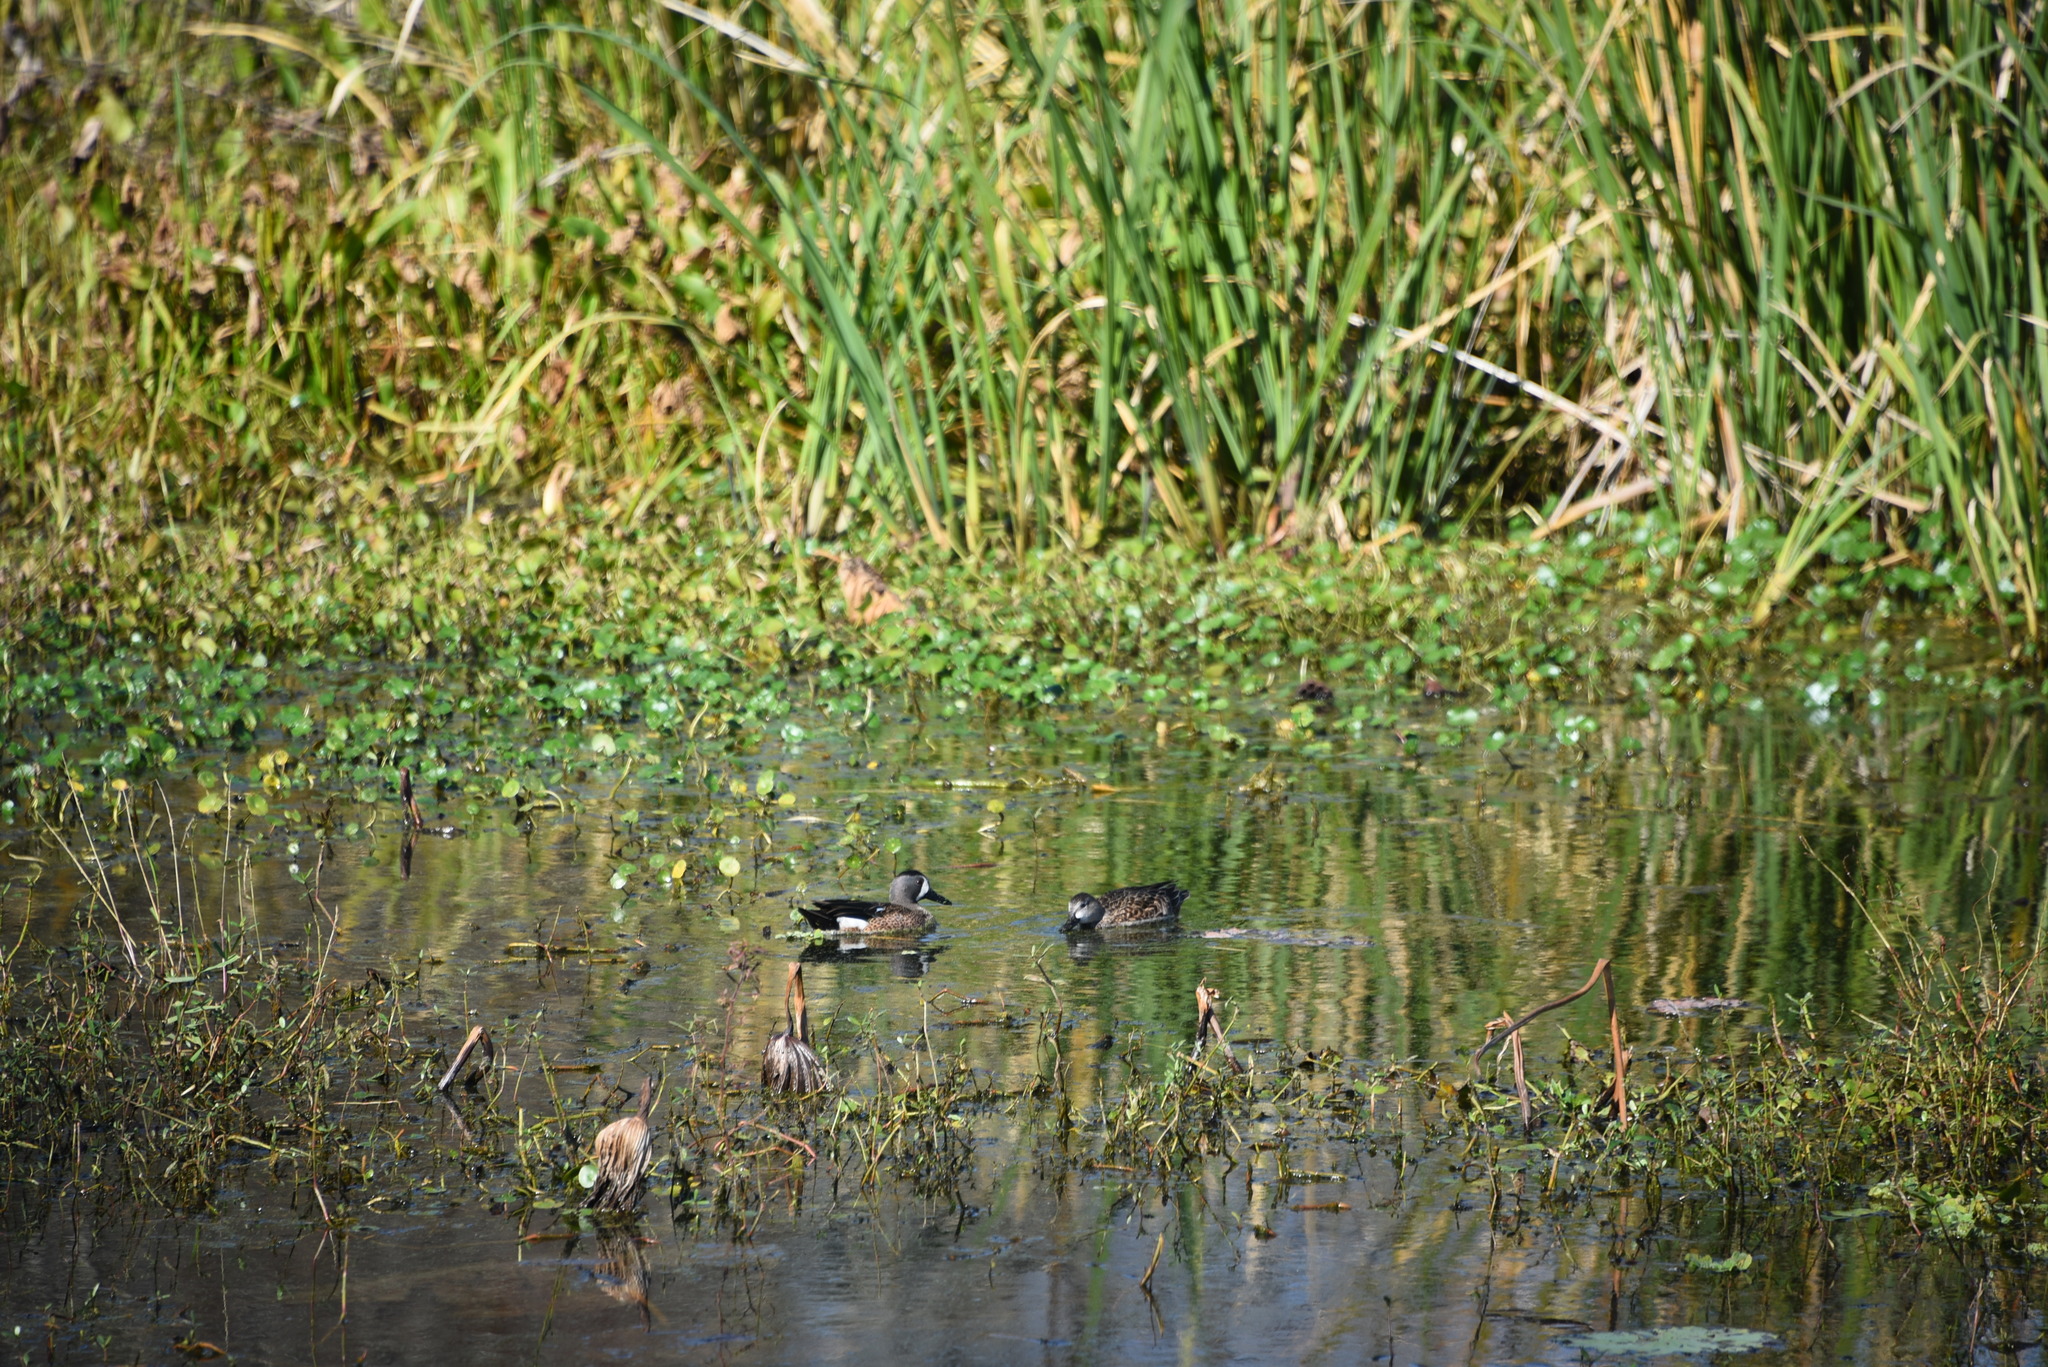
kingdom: Animalia
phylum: Chordata
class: Aves
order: Anseriformes
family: Anatidae
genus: Spatula
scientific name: Spatula discors
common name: Blue-winged teal
